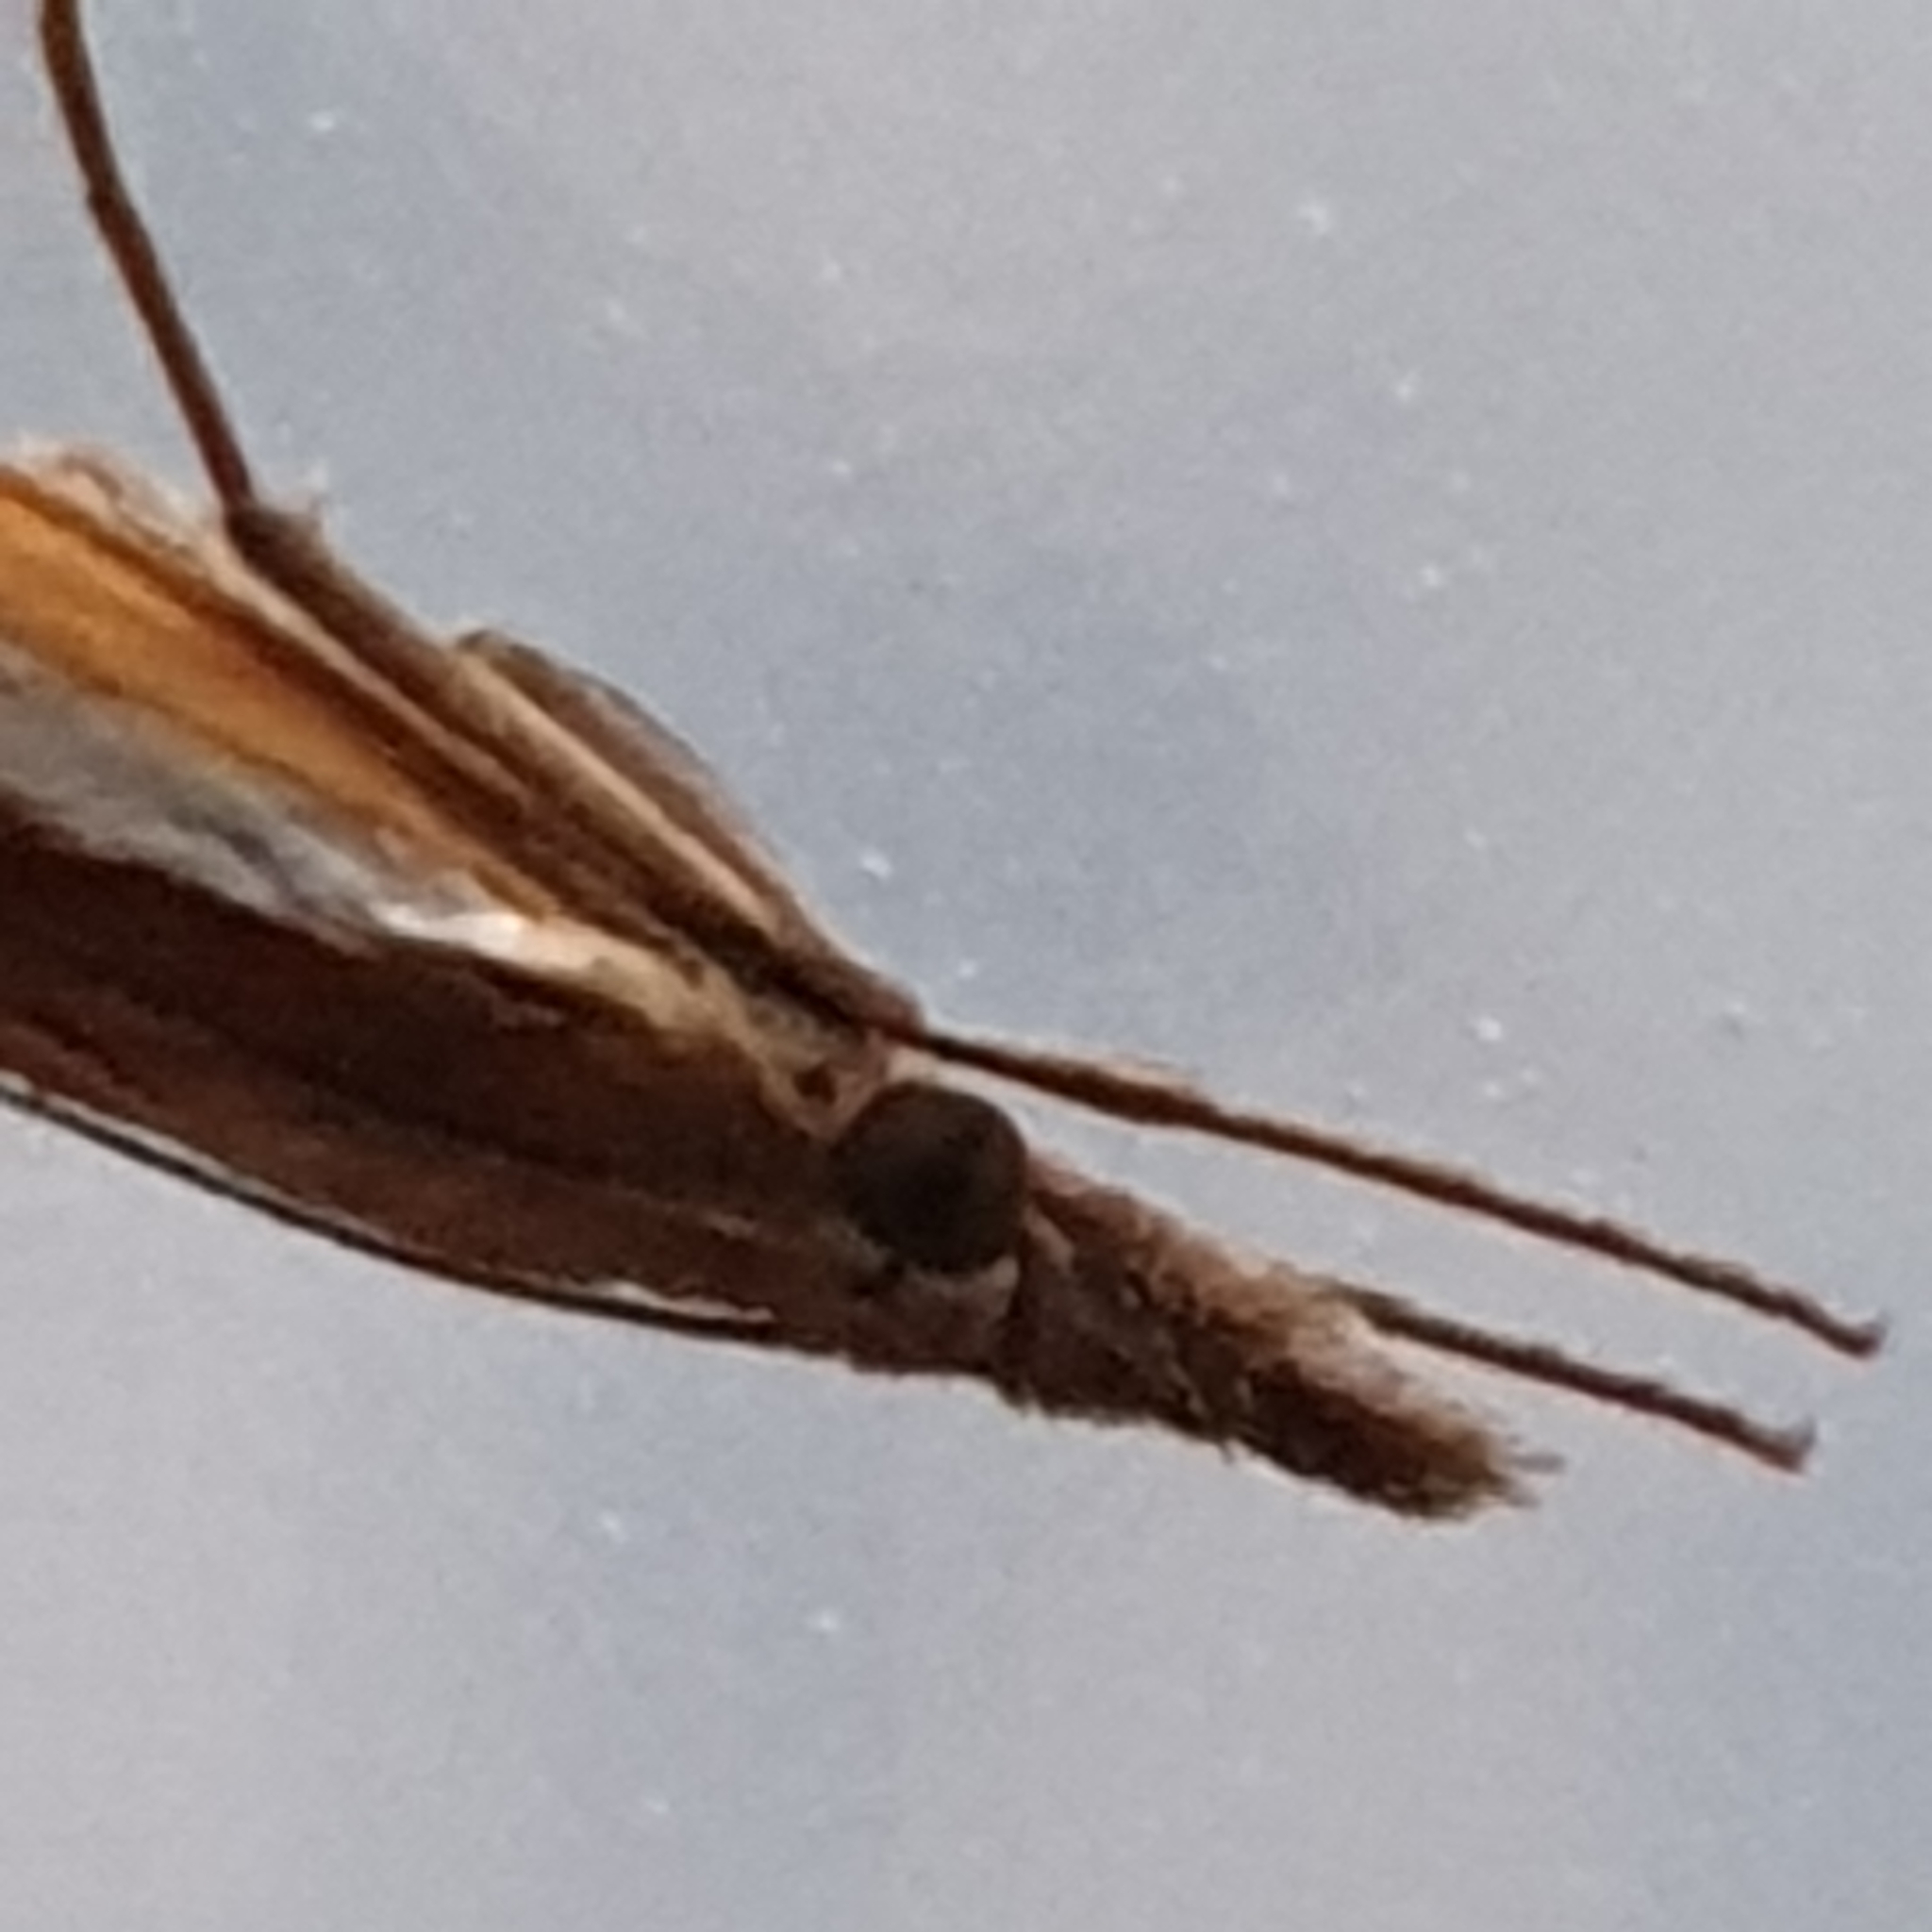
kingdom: Animalia
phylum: Arthropoda
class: Insecta
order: Lepidoptera
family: Crambidae
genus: Agriphila
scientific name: Agriphila tristellus
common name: Common grass-veneer
